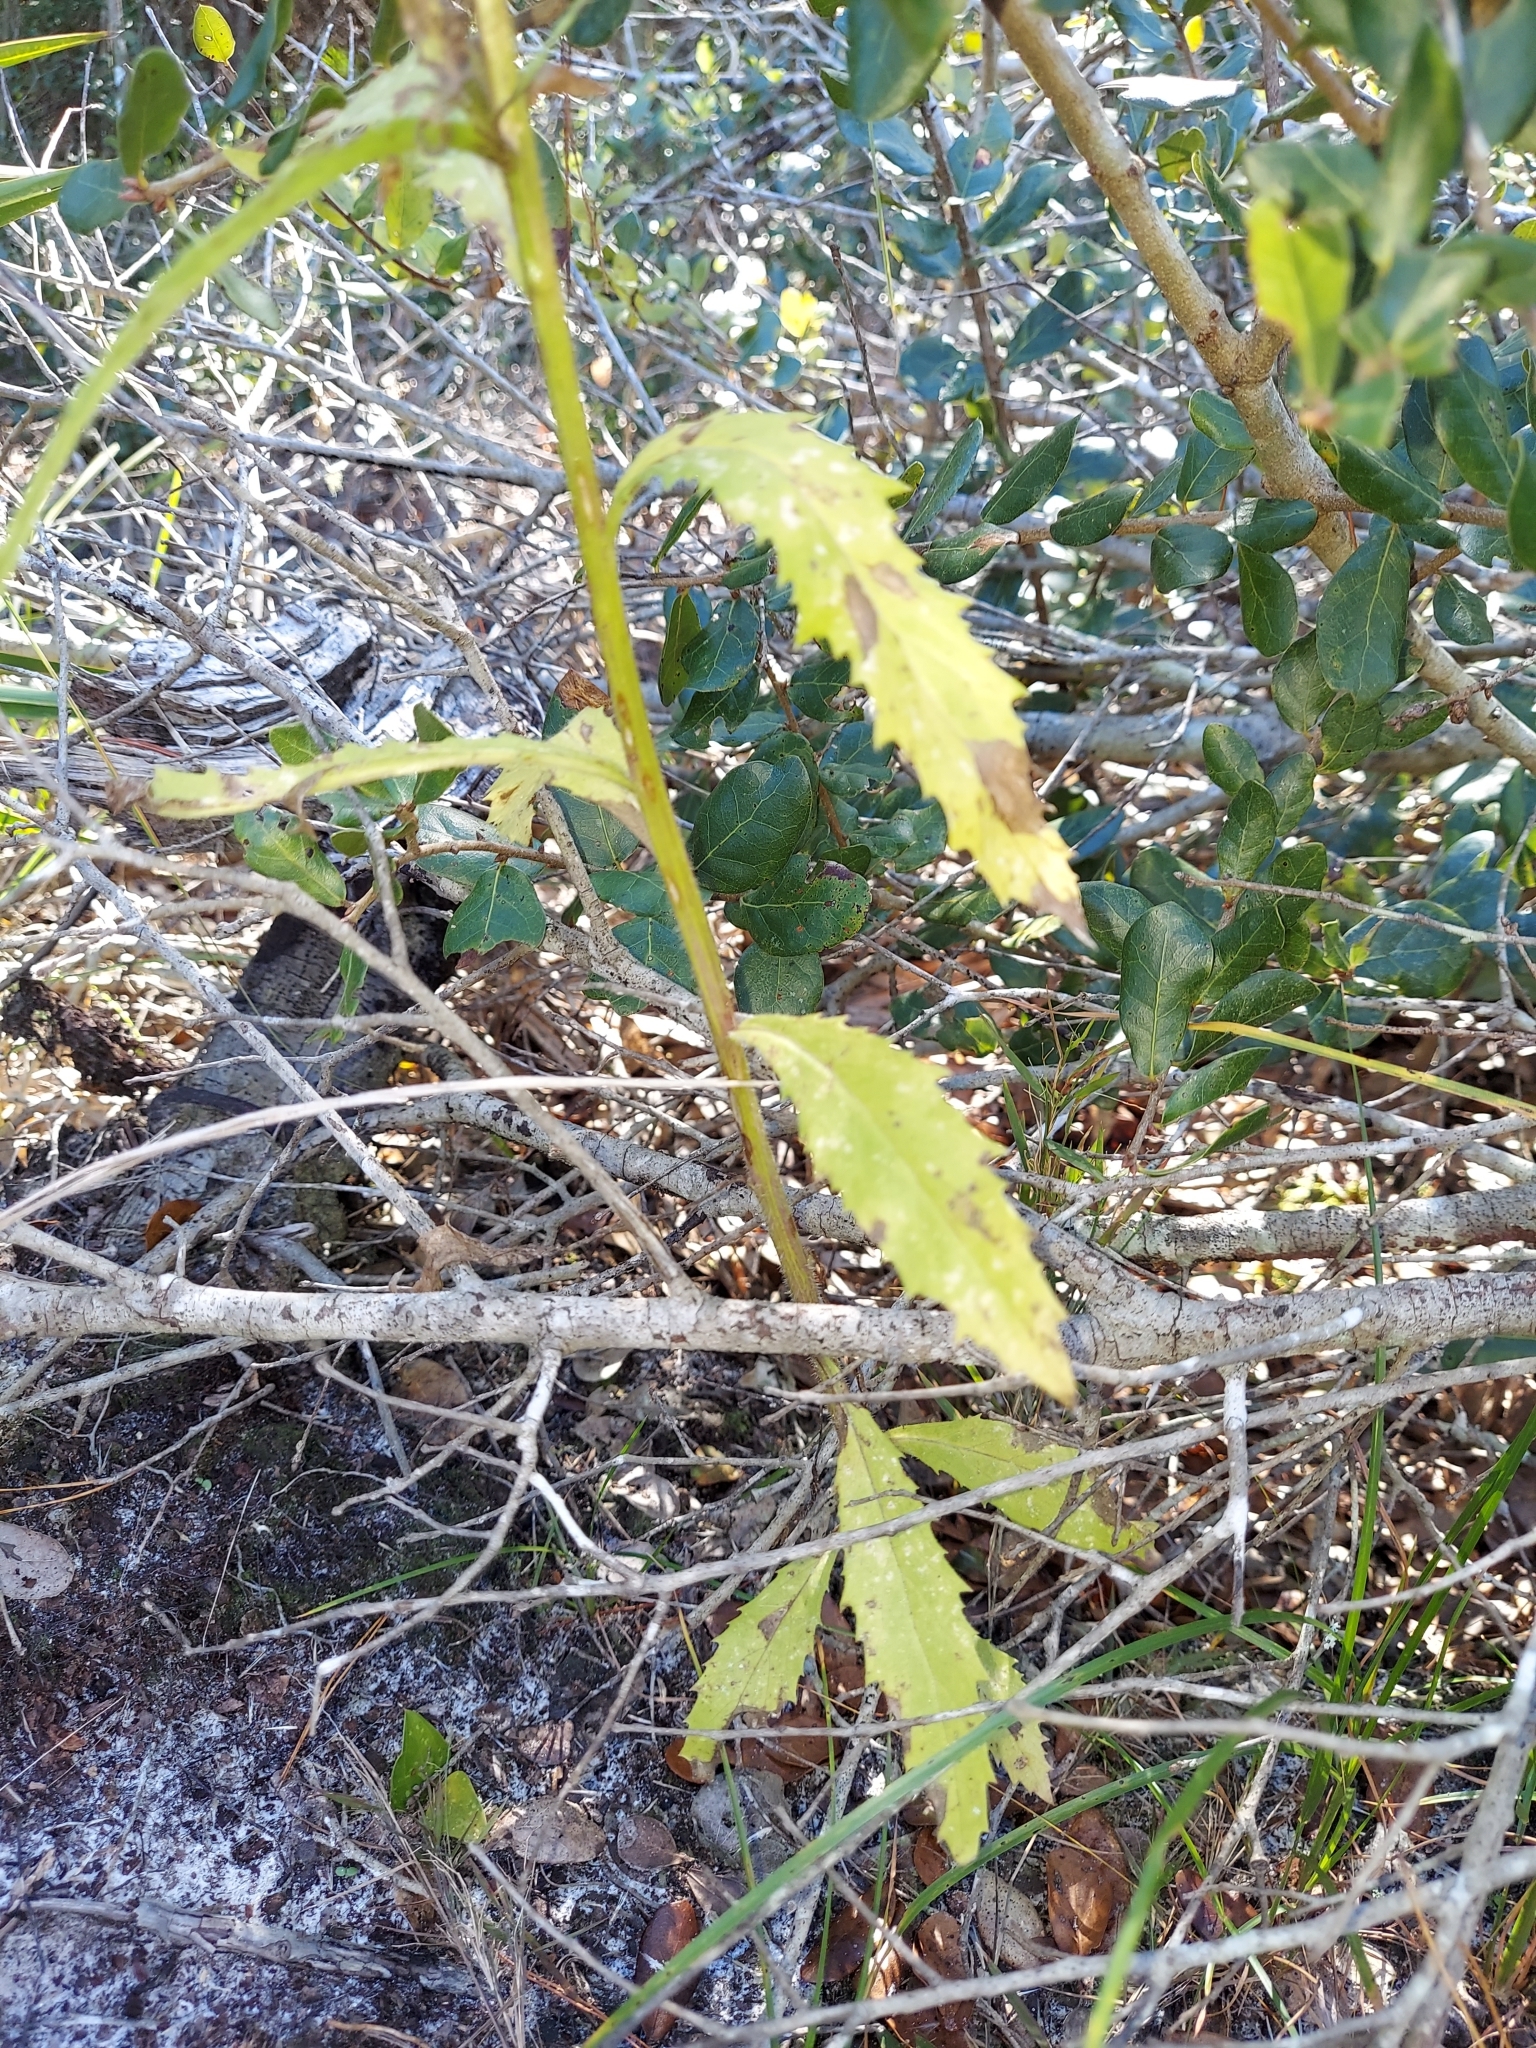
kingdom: Plantae
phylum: Tracheophyta
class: Magnoliopsida
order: Asterales
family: Asteraceae
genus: Erechtites
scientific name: Erechtites hieraciifolius
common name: American burnweed
